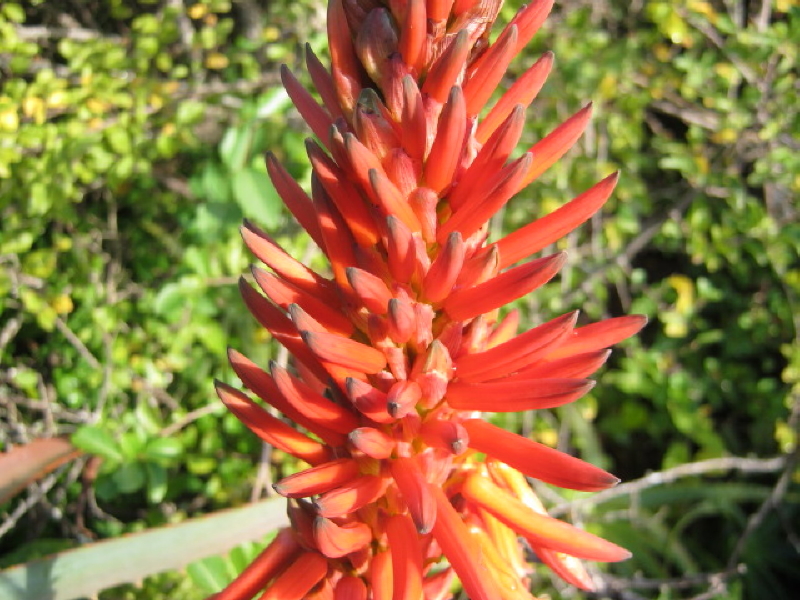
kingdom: Plantae
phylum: Tracheophyta
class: Liliopsida
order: Asparagales
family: Asphodelaceae
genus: Aloe
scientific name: Aloe arborescens
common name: Candelabra aloe
